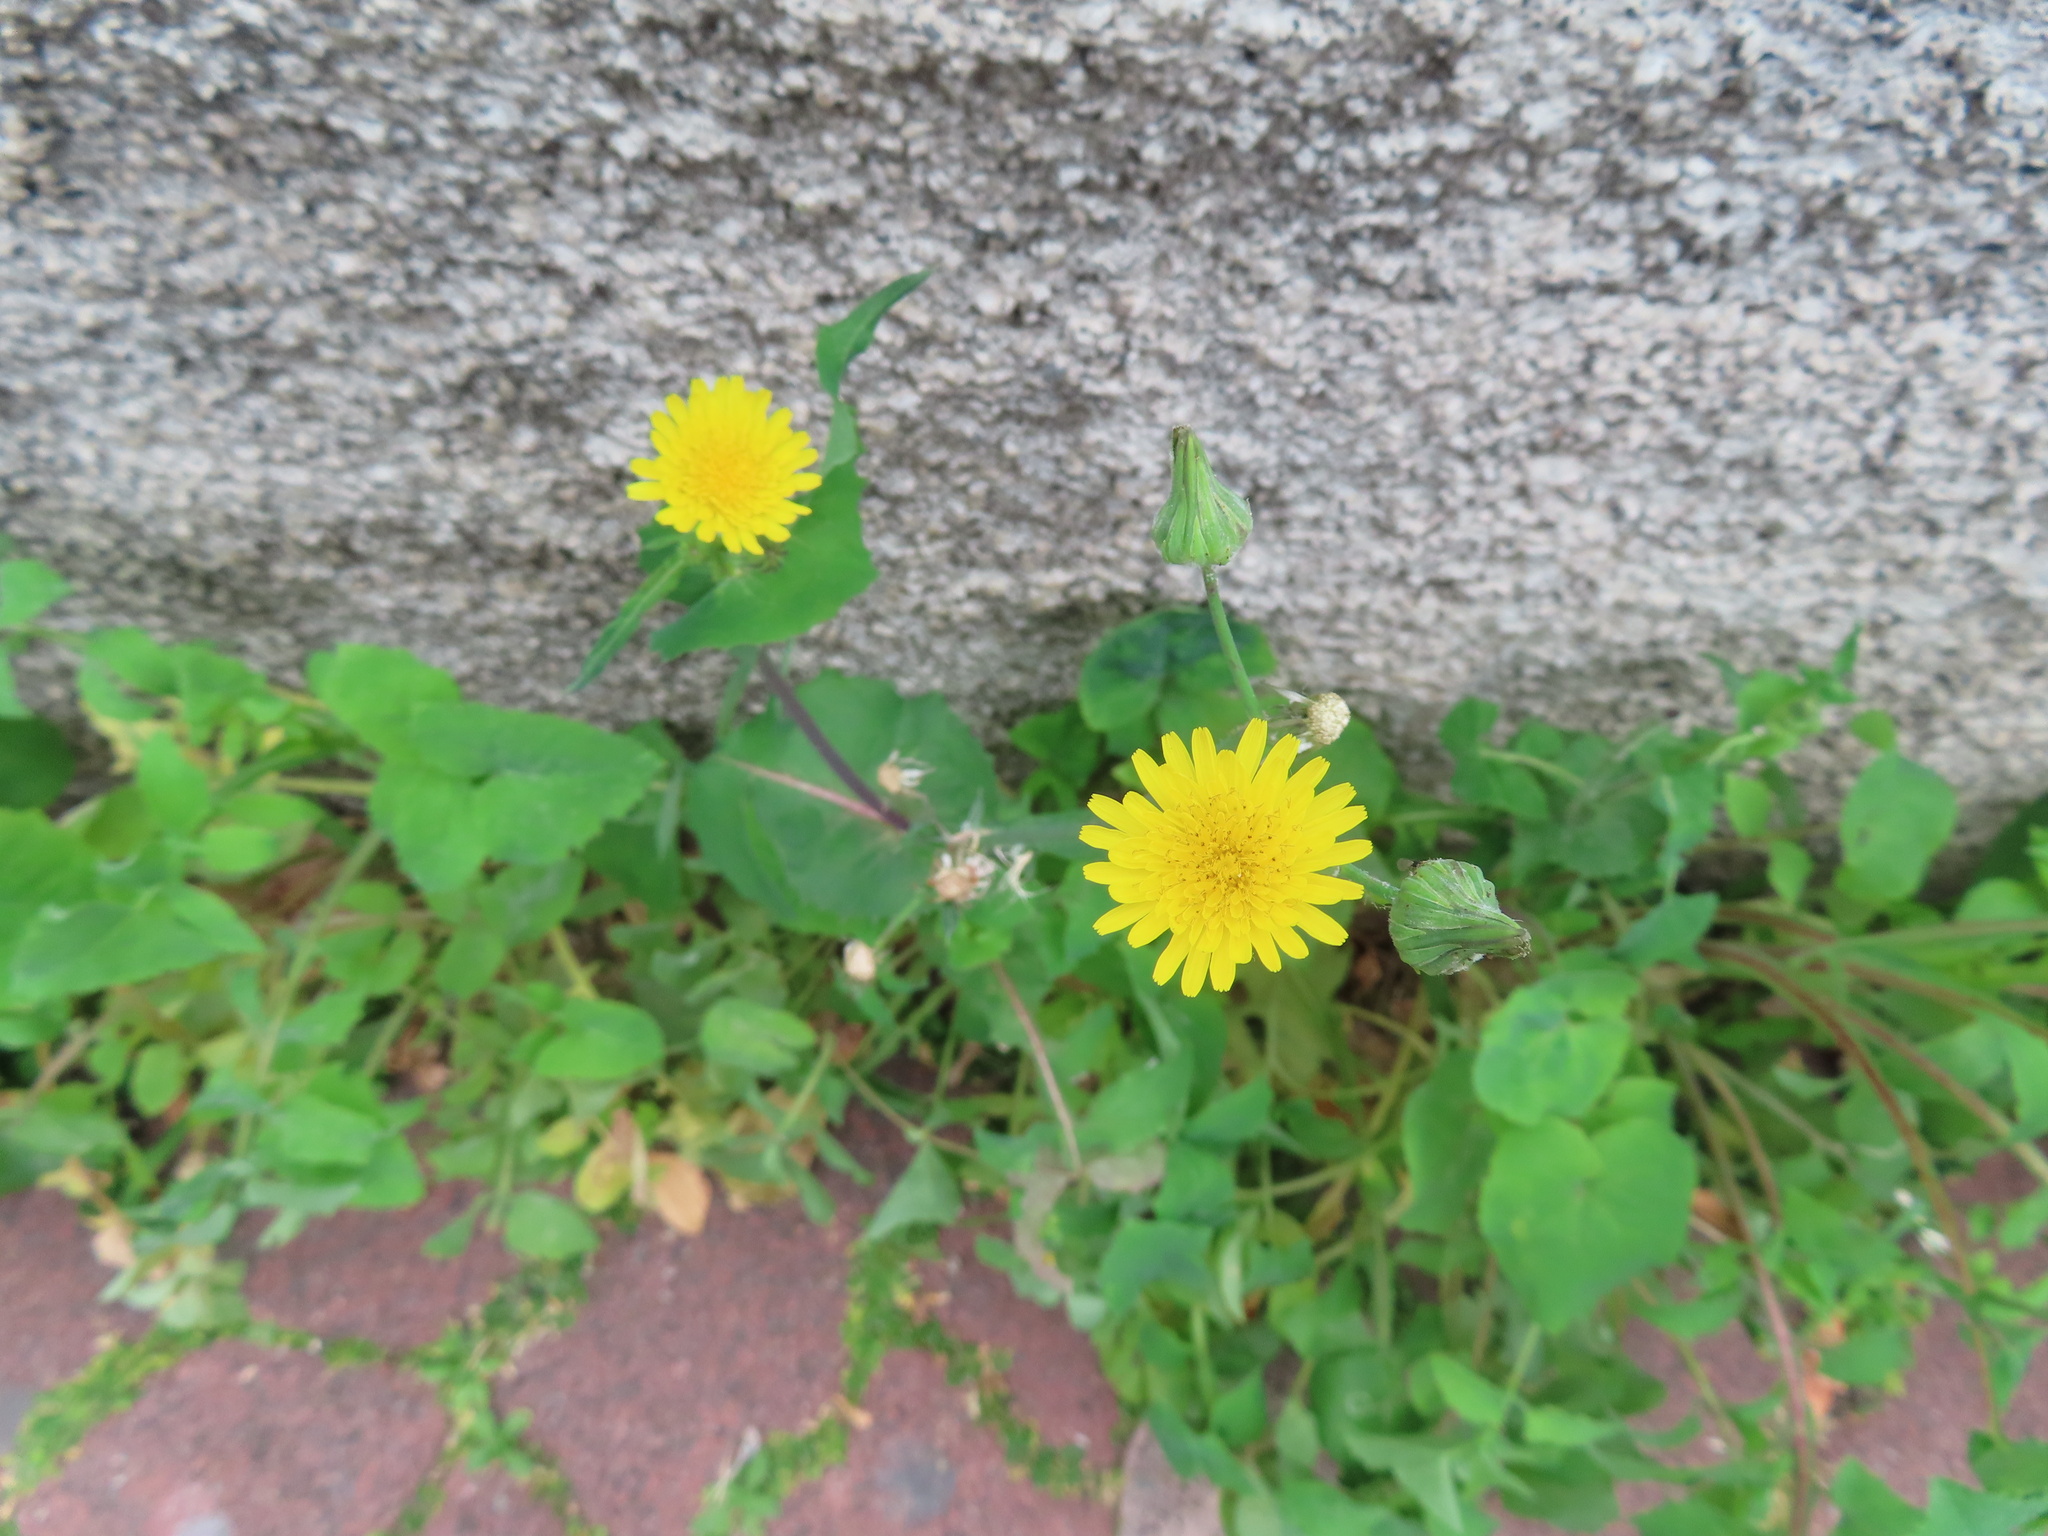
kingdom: Plantae
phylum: Tracheophyta
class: Magnoliopsida
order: Asterales
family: Asteraceae
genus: Sonchus
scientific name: Sonchus oleraceus
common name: Common sowthistle
